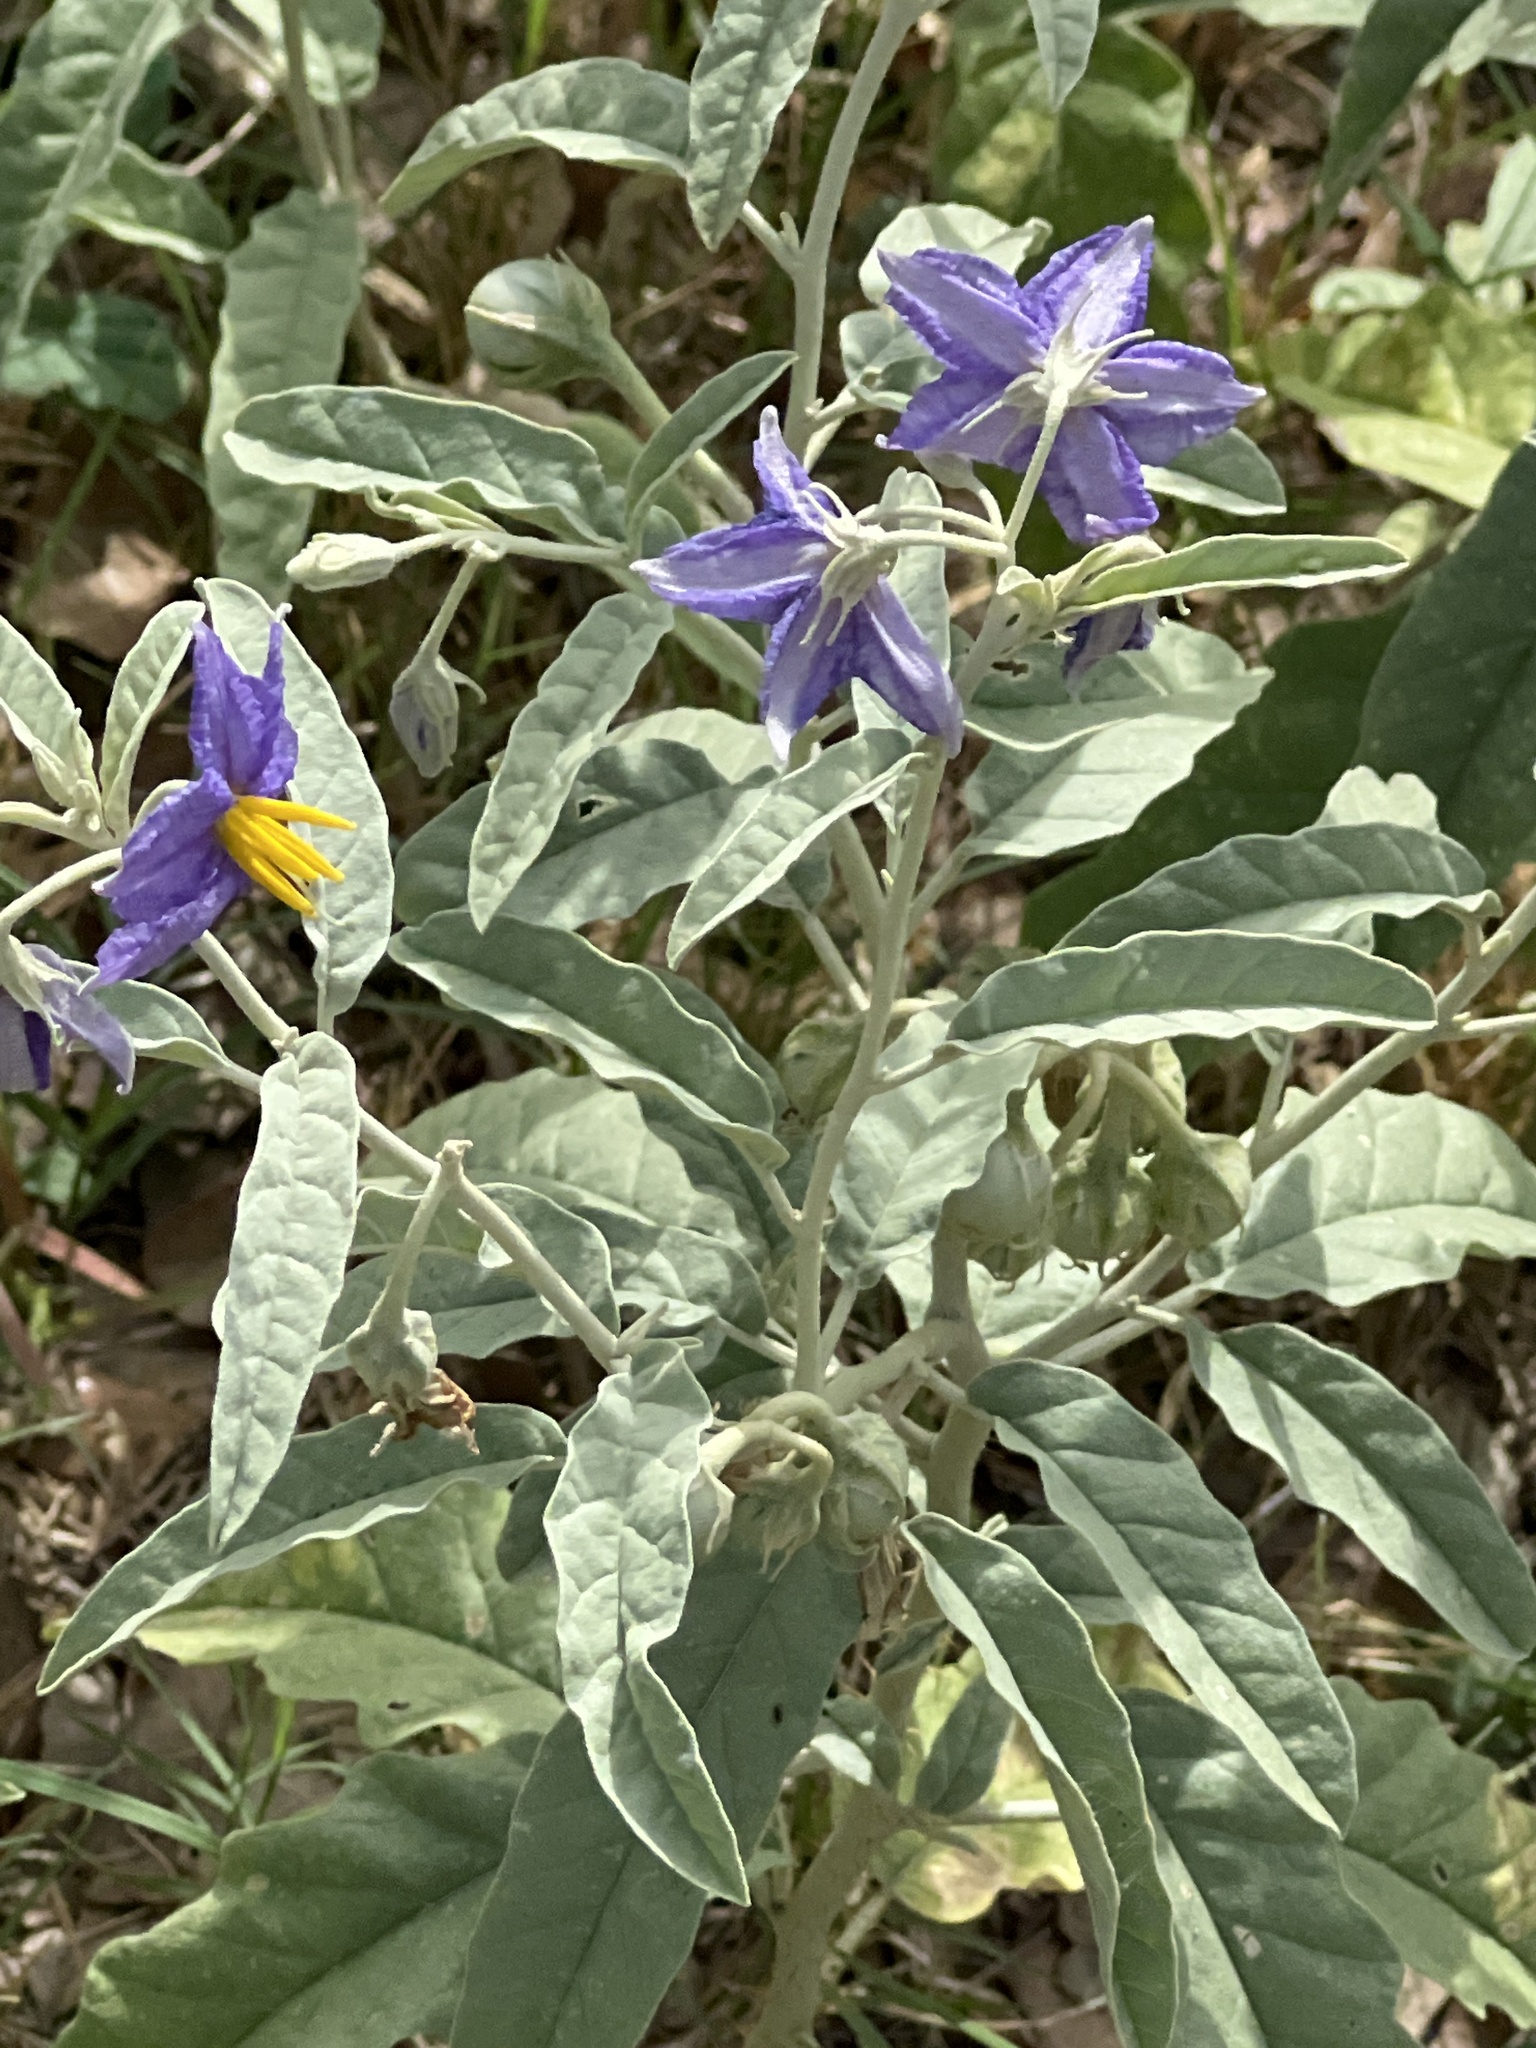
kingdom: Plantae
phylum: Tracheophyta
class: Magnoliopsida
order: Solanales
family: Solanaceae
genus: Solanum
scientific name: Solanum elaeagnifolium
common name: Silverleaf nightshade
